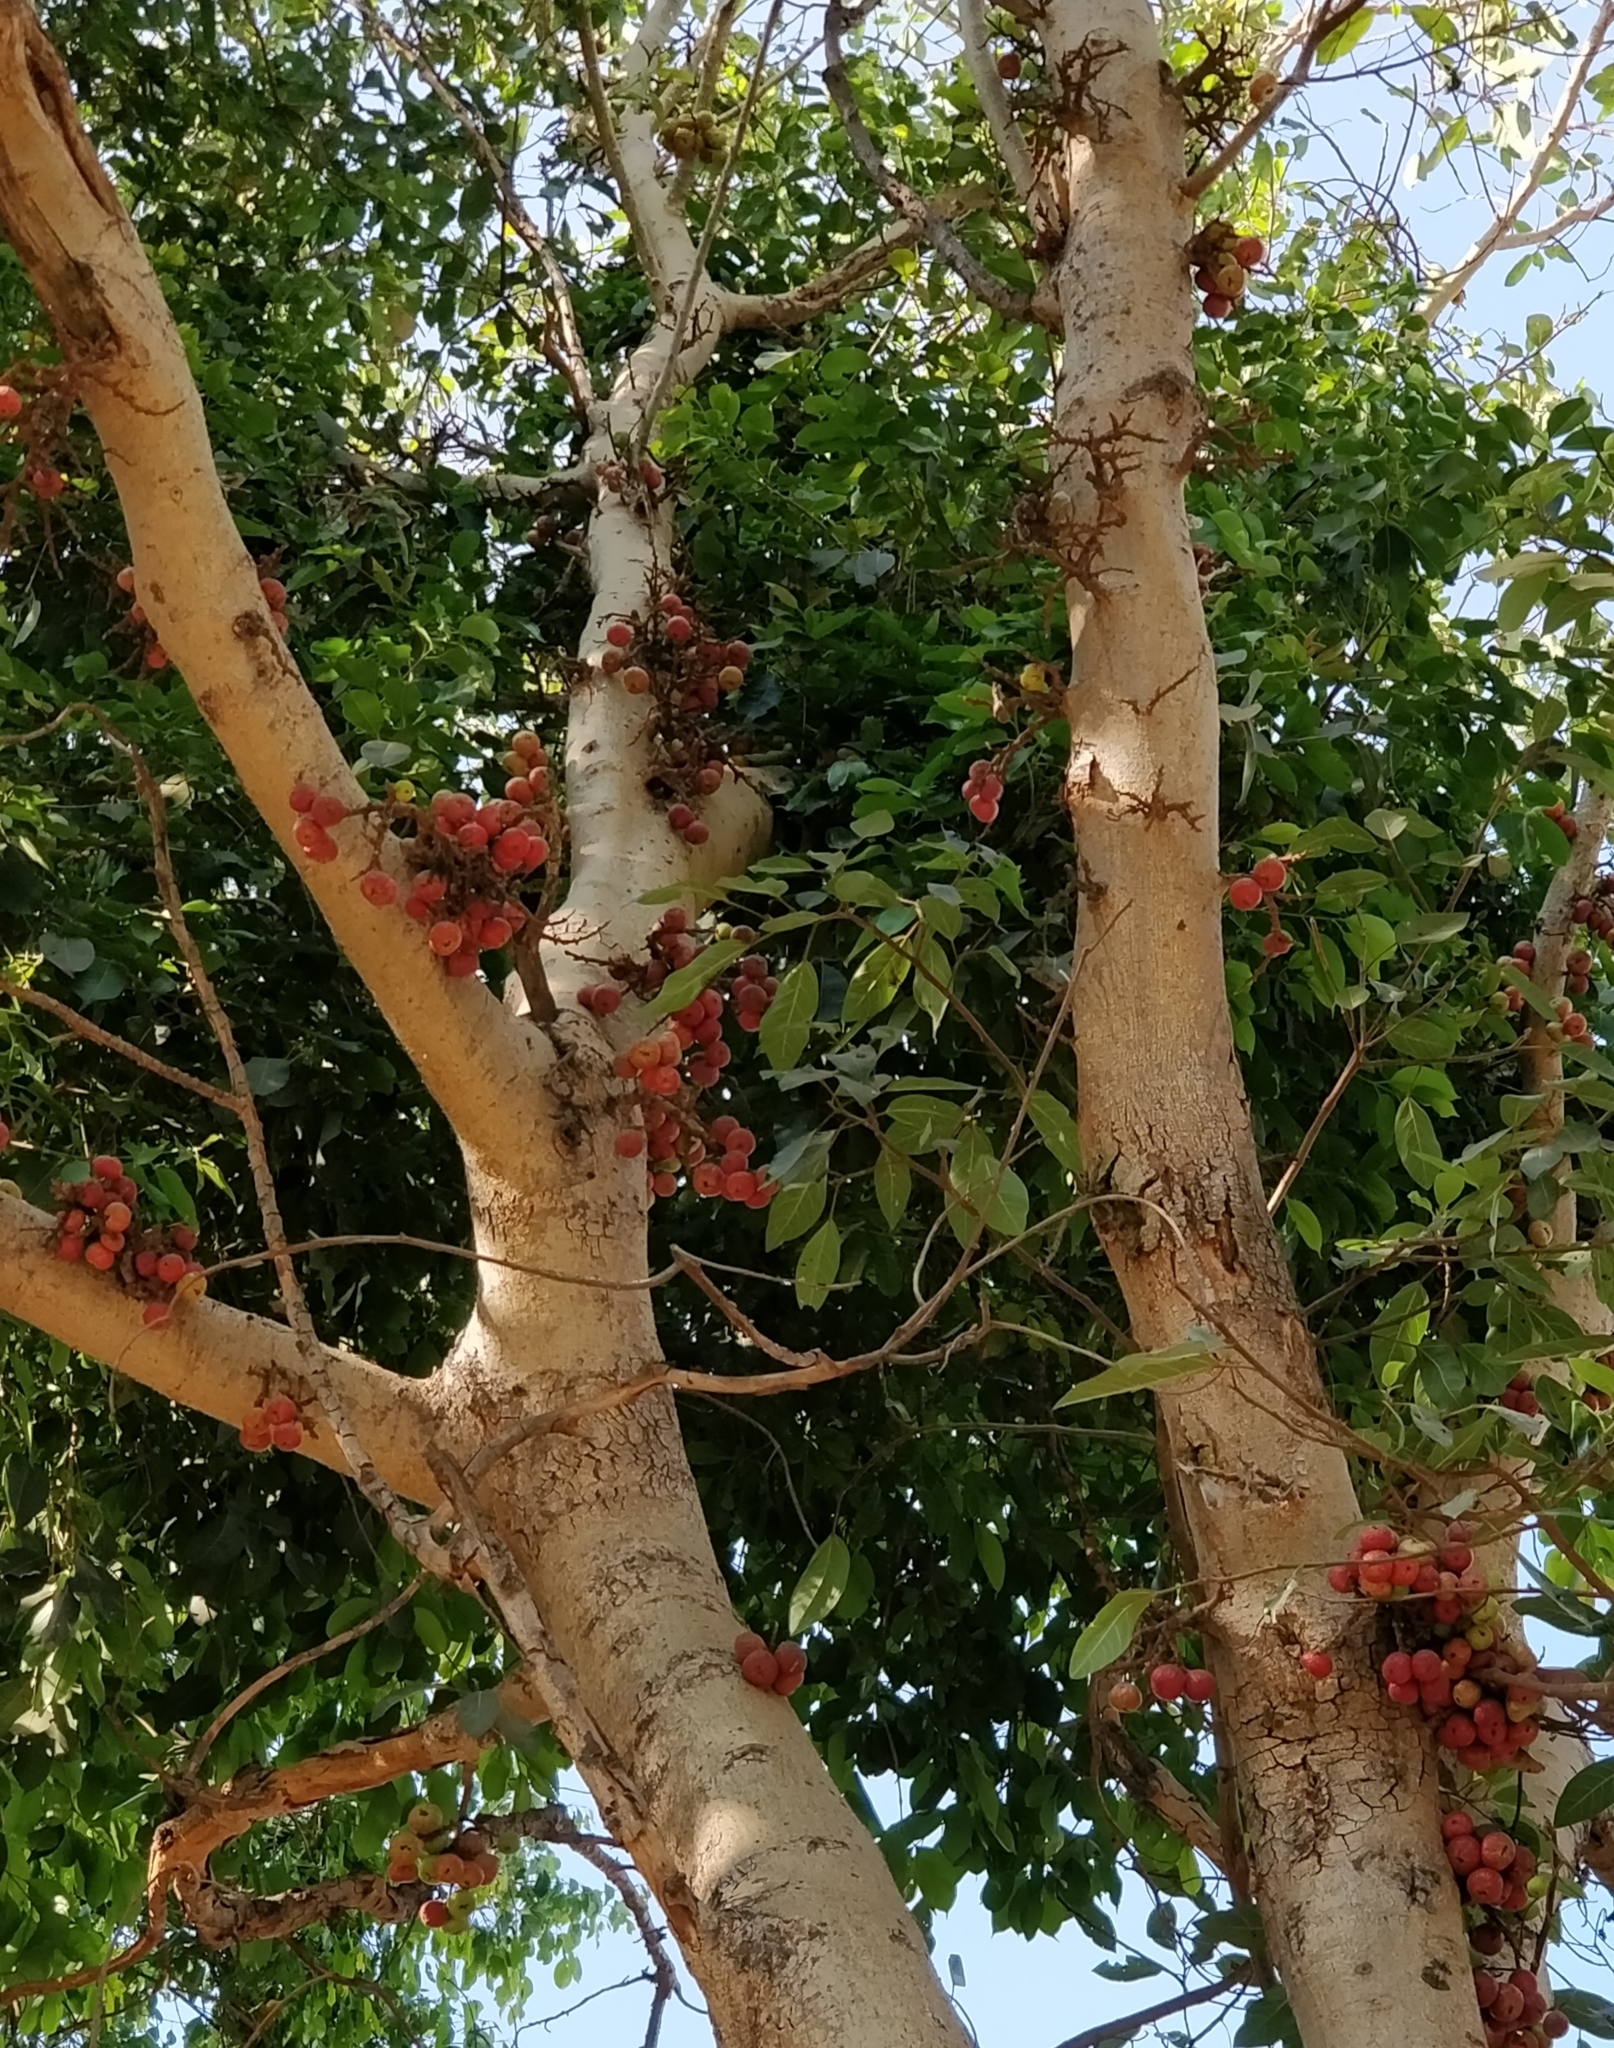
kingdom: Plantae
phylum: Tracheophyta
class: Magnoliopsida
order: Rosales
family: Moraceae
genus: Ficus
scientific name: Ficus racemosa
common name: Cluster fig
